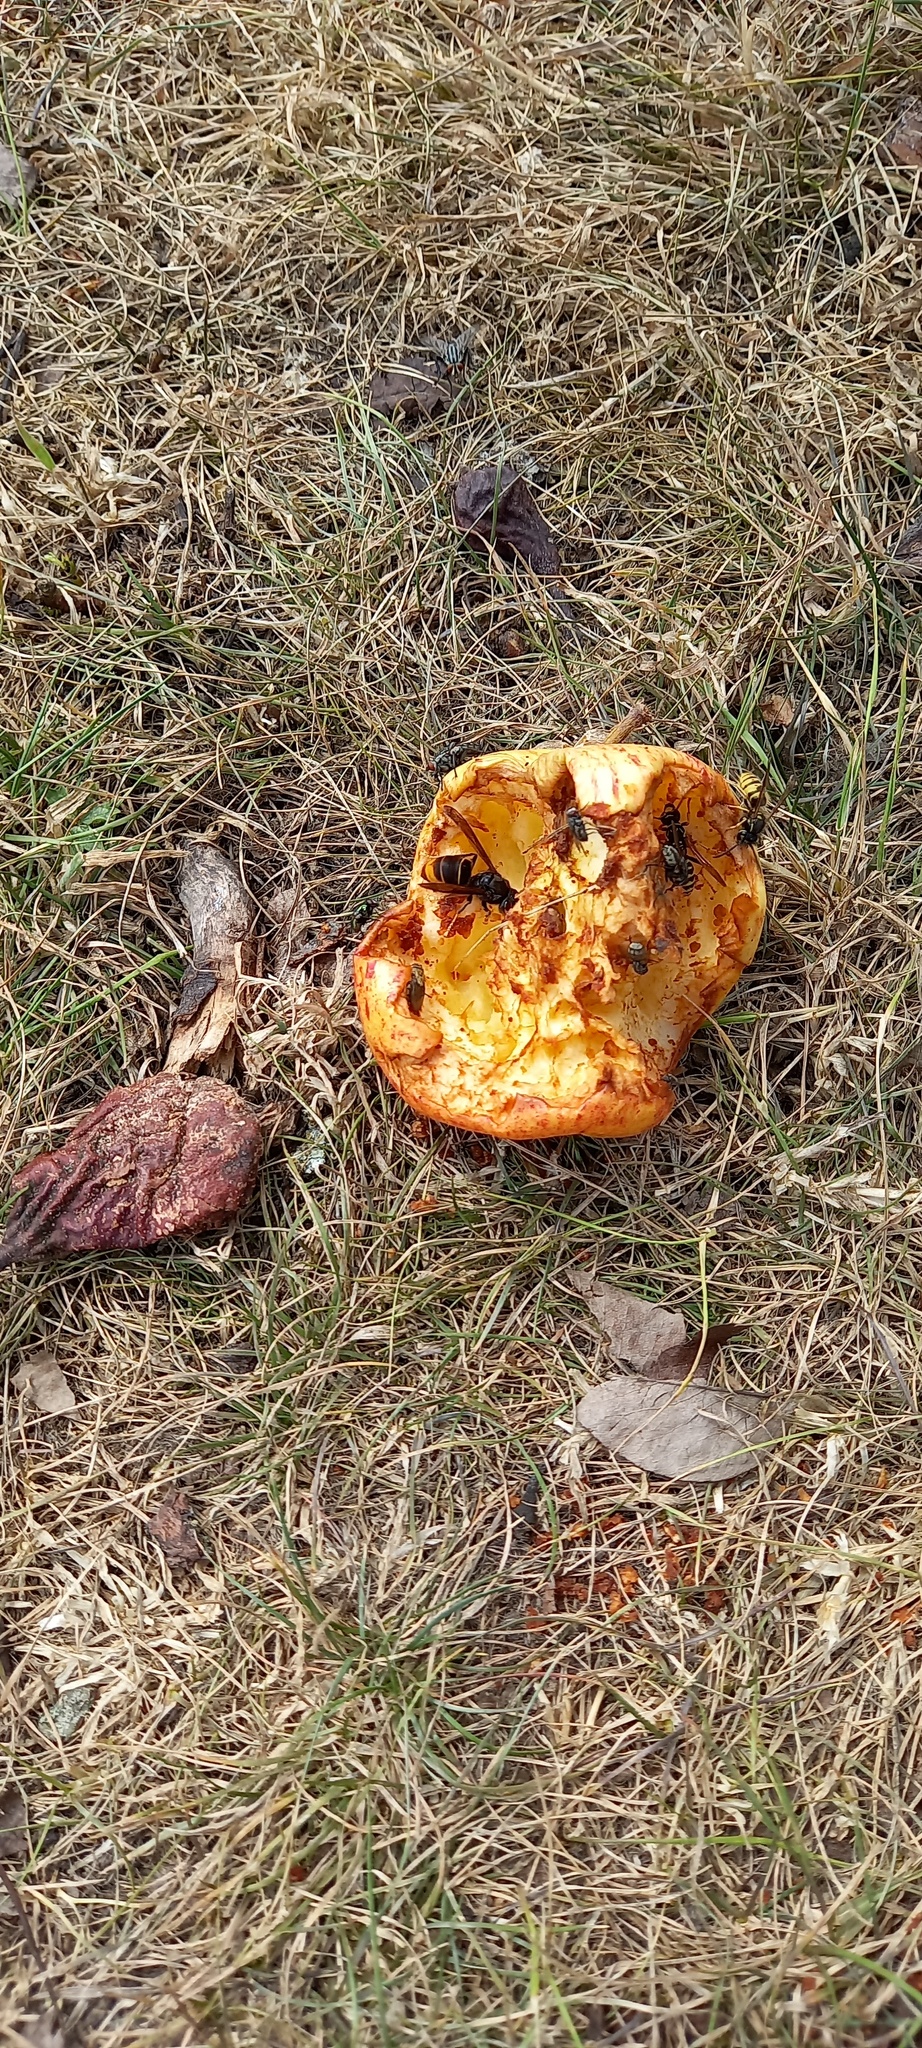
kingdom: Animalia
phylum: Arthropoda
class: Insecta
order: Hymenoptera
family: Vespidae
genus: Vespa
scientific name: Vespa velutina
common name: Asian hornet
